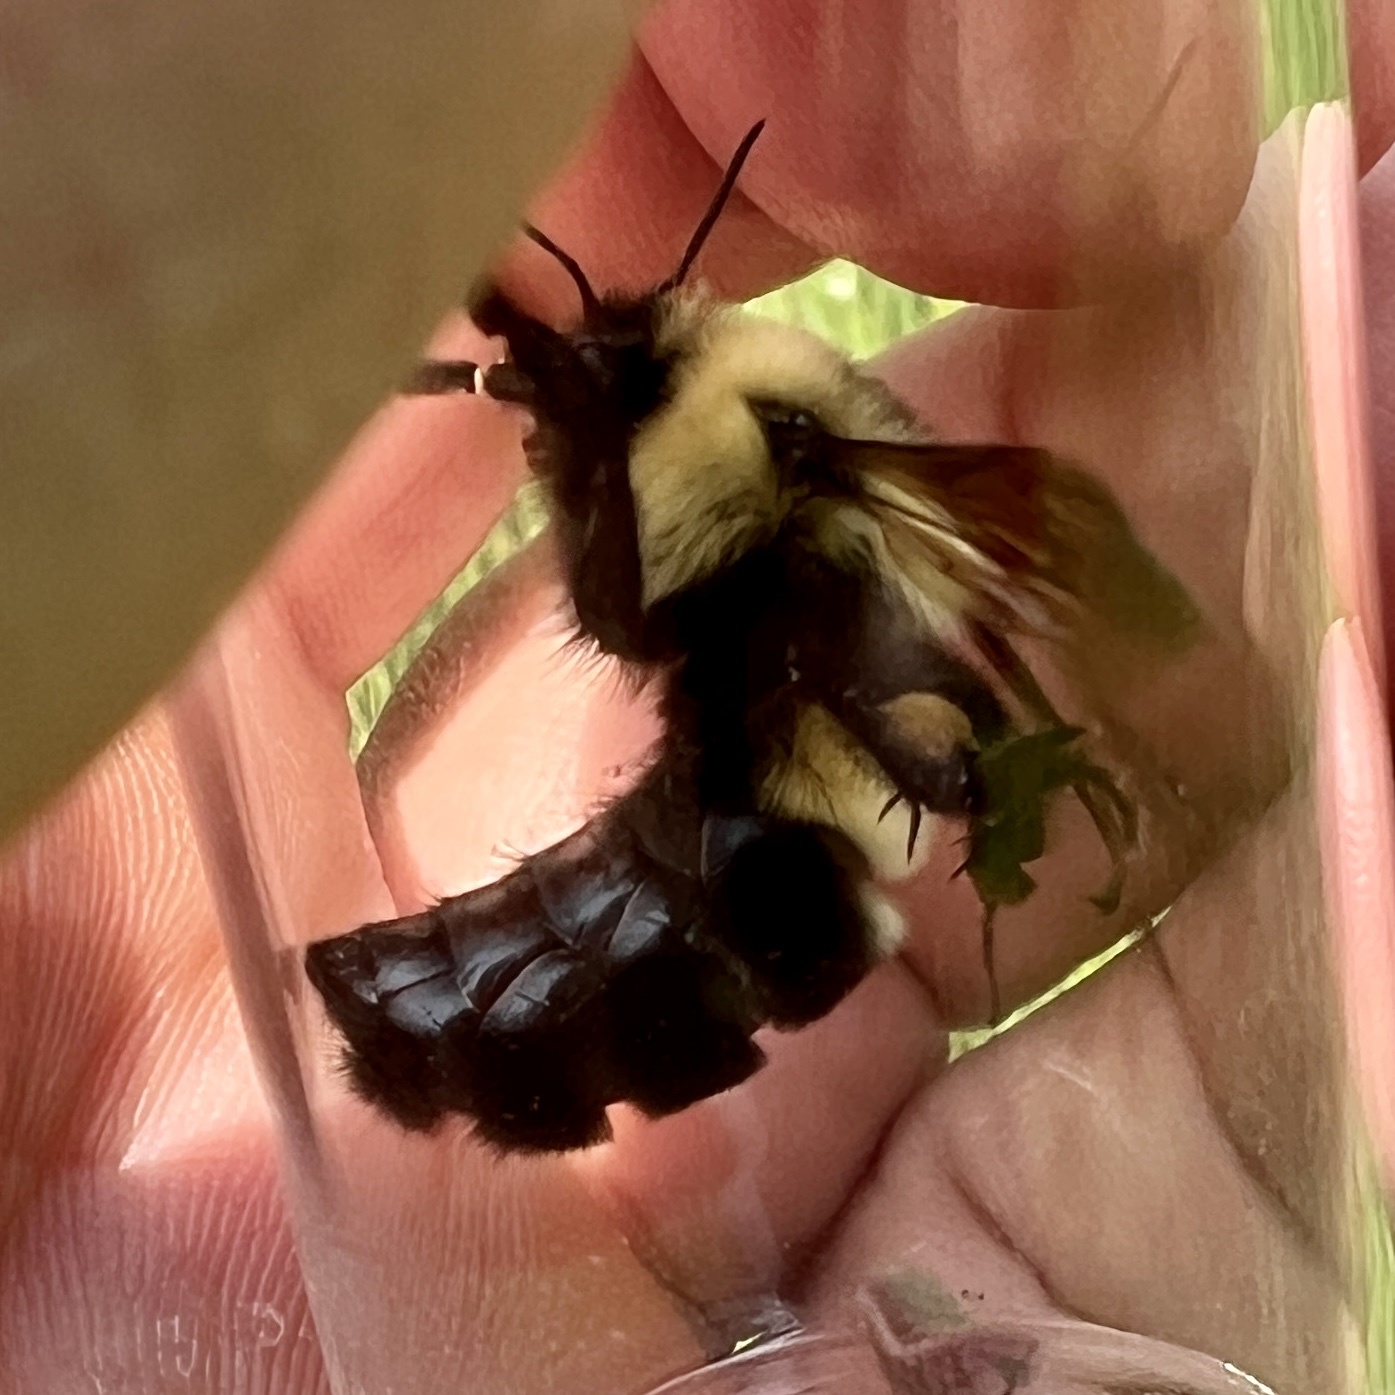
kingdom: Animalia
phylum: Arthropoda
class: Insecta
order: Hymenoptera
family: Apidae
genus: Bombus
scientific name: Bombus bimaculatus
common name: Two-spotted bumble bee
